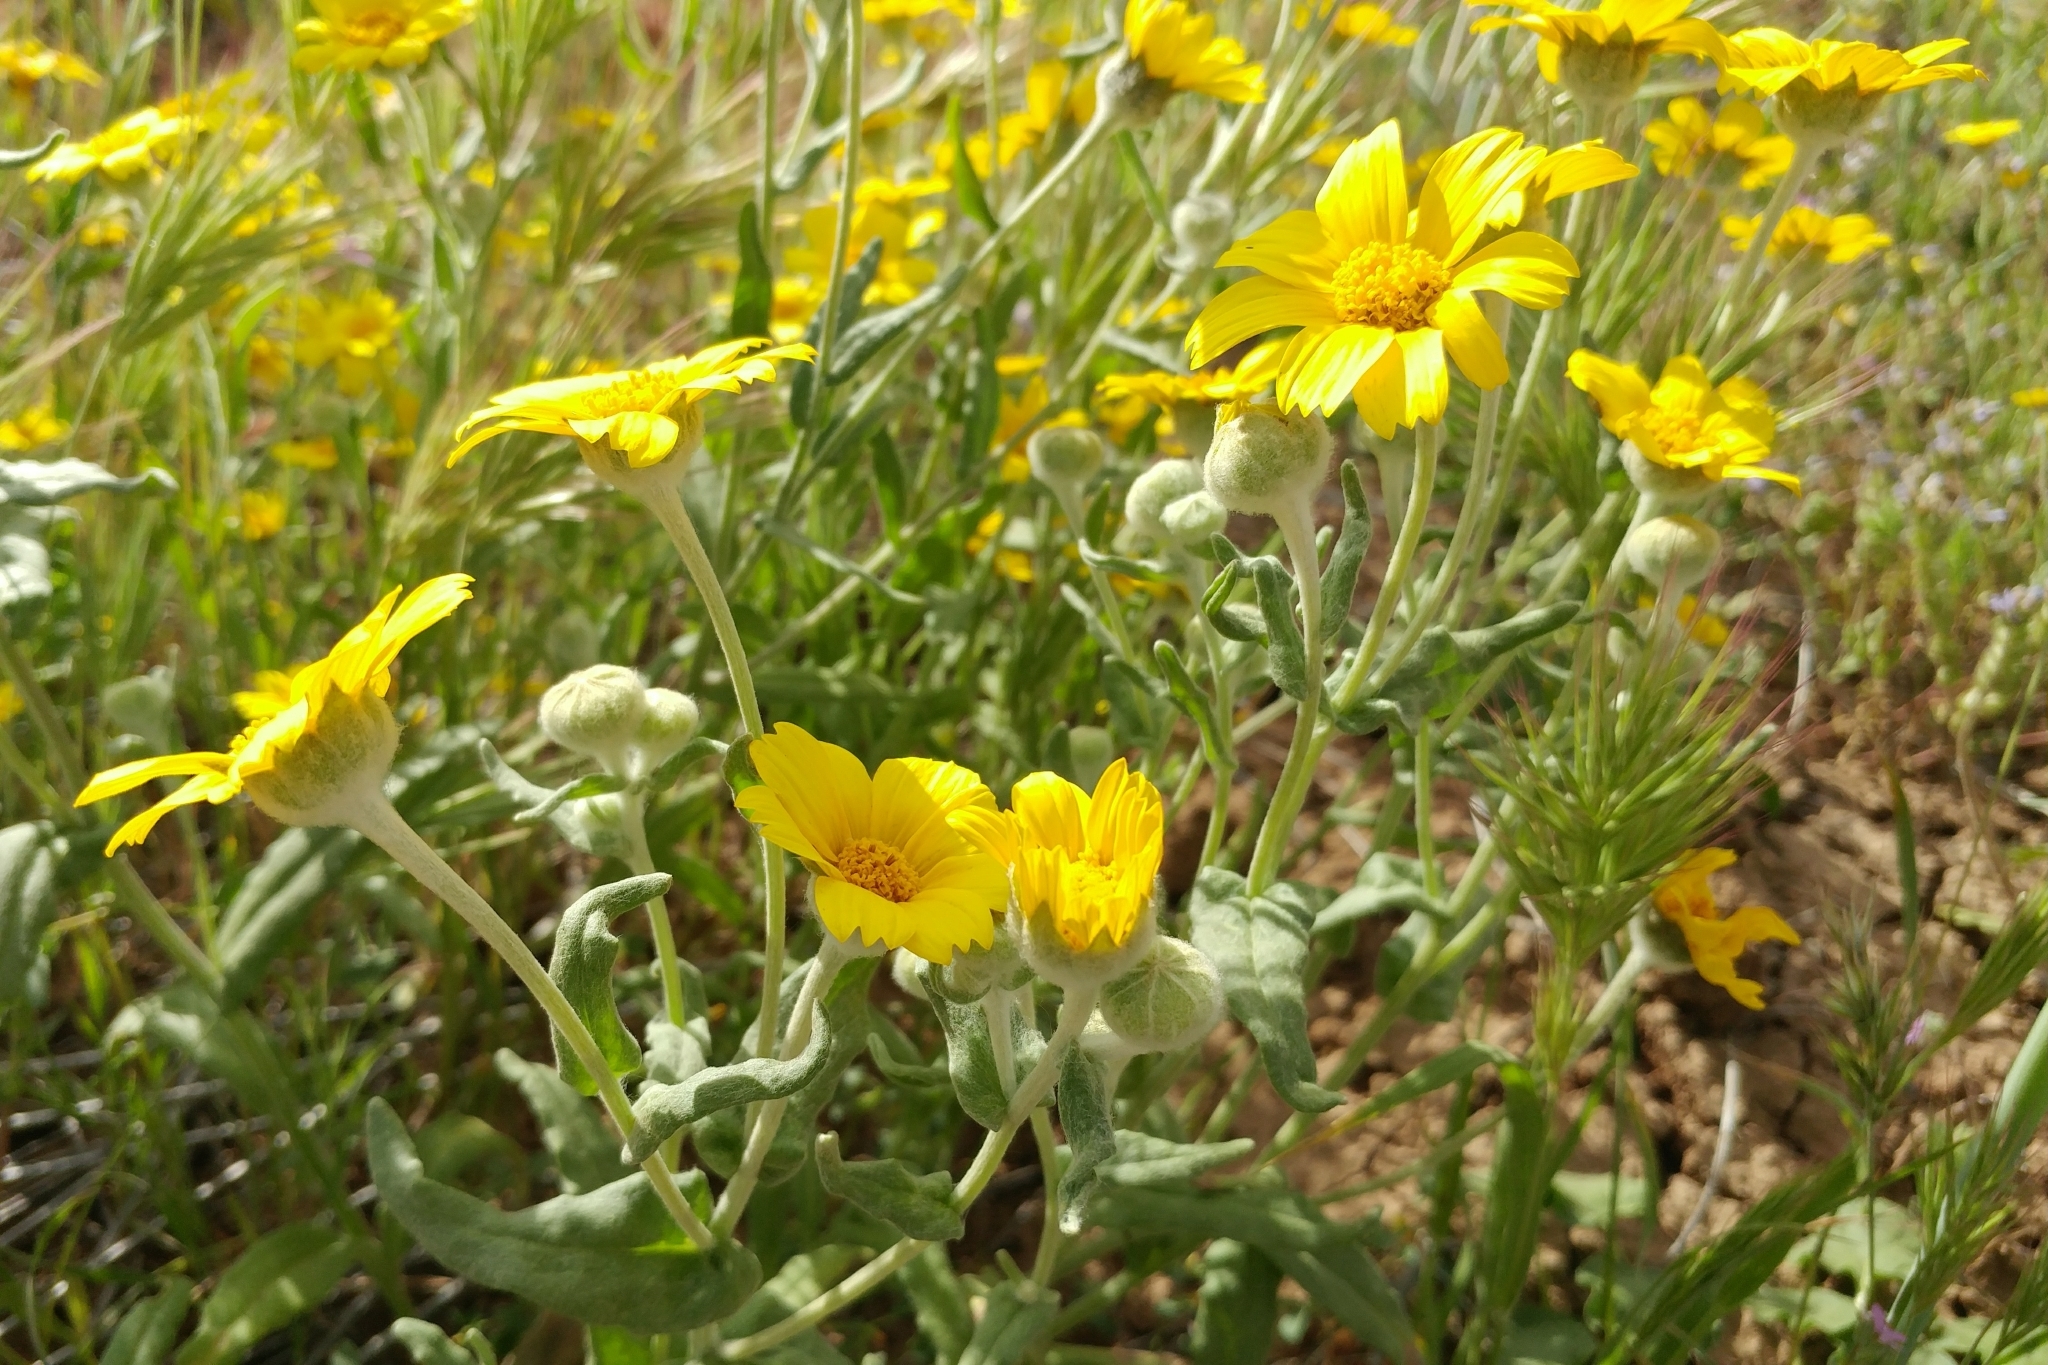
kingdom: Plantae
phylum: Tracheophyta
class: Magnoliopsida
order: Asterales
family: Asteraceae
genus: Monolopia
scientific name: Monolopia lanceolata
